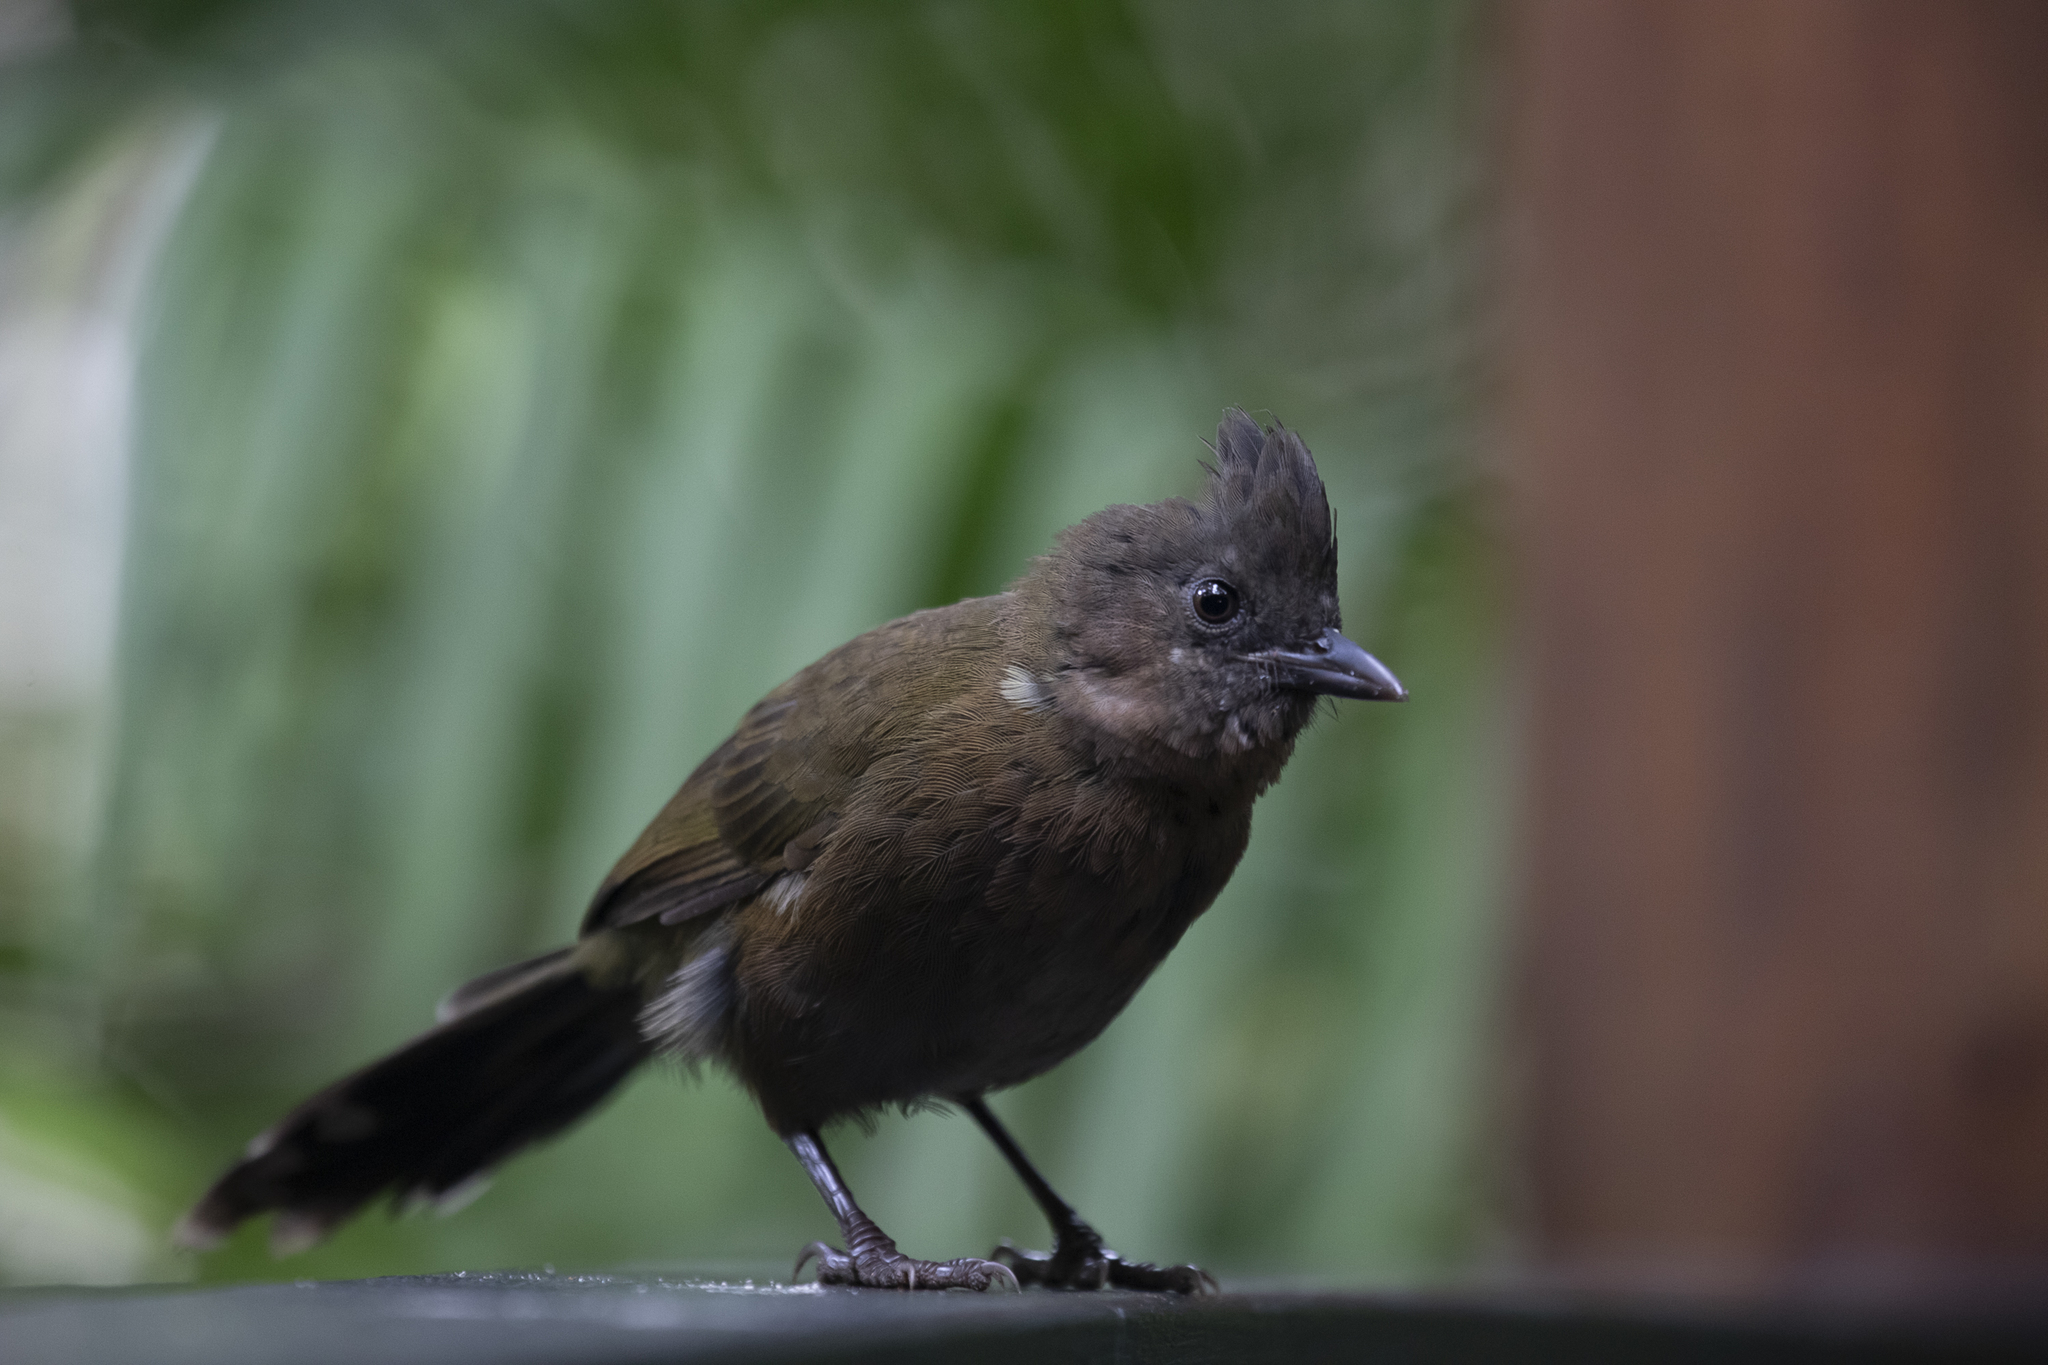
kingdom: Animalia
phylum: Chordata
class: Aves
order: Passeriformes
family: Psophodidae
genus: Psophodes
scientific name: Psophodes olivaceus
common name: Eastern whipbird
